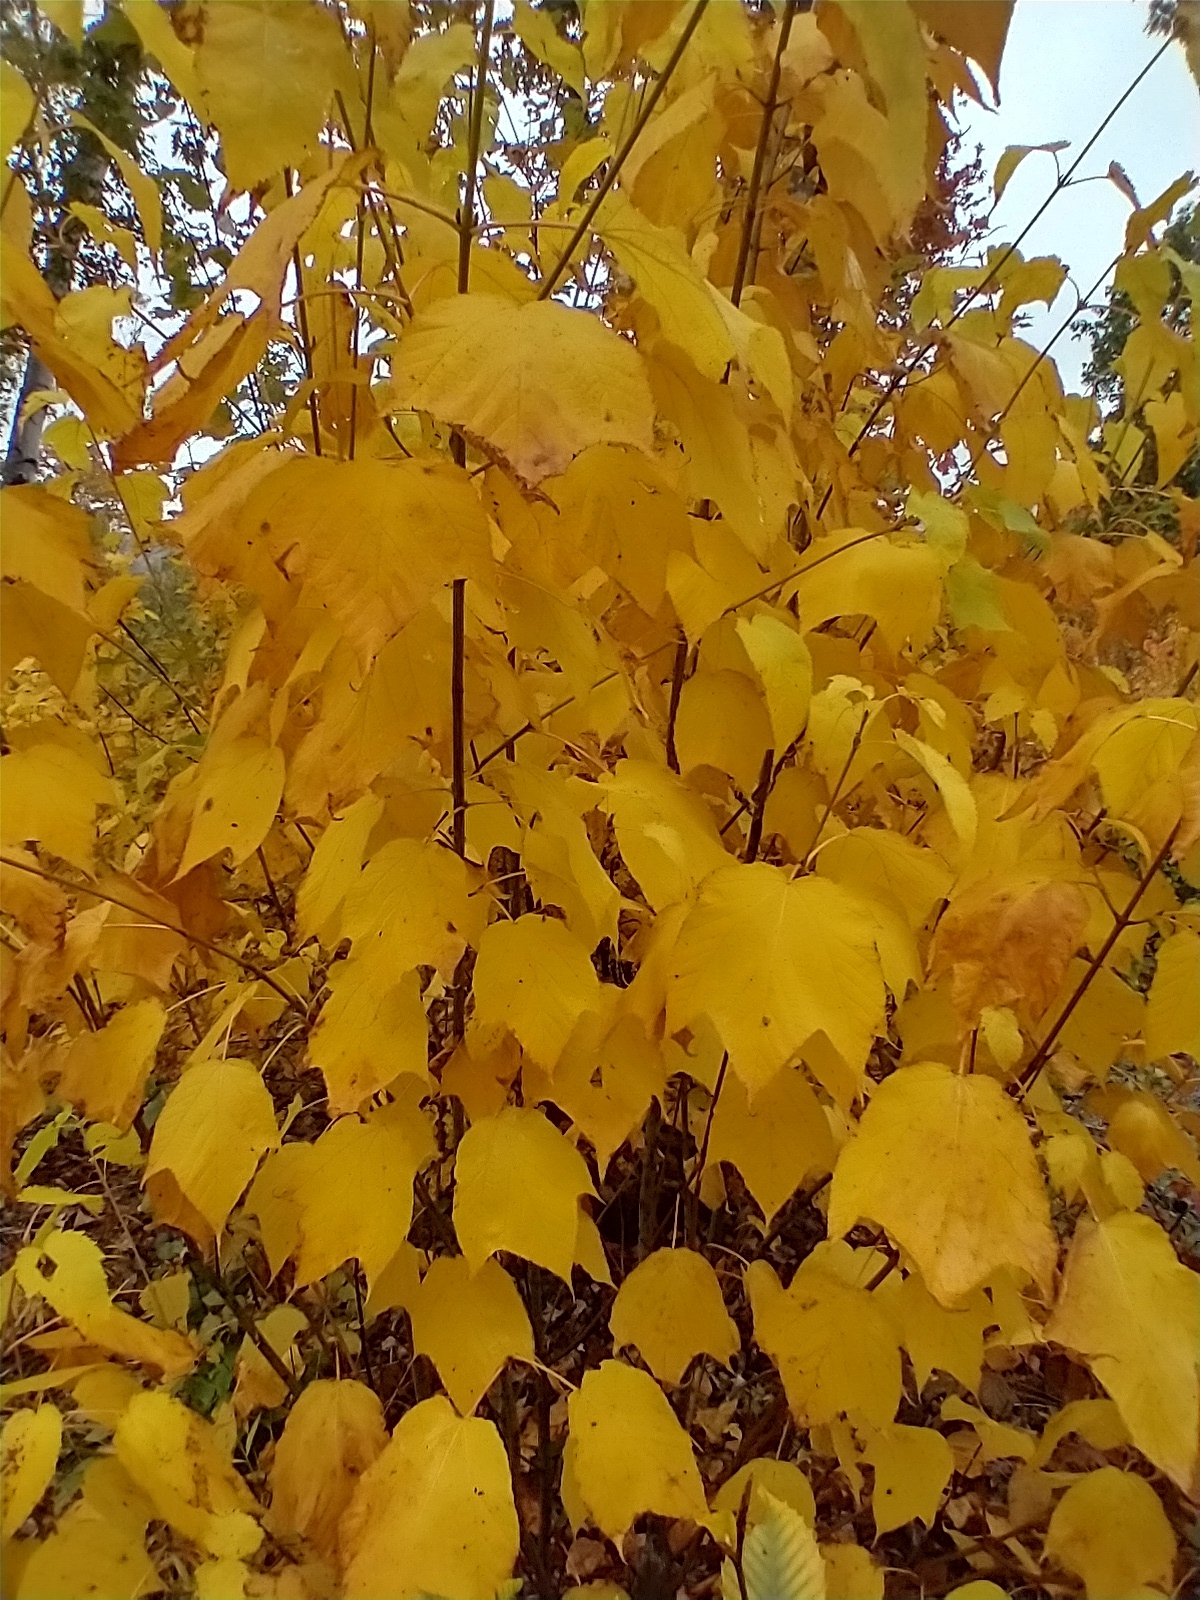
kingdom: Plantae
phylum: Tracheophyta
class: Magnoliopsida
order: Sapindales
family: Sapindaceae
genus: Acer
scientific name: Acer pensylvanicum
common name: Moosewood
